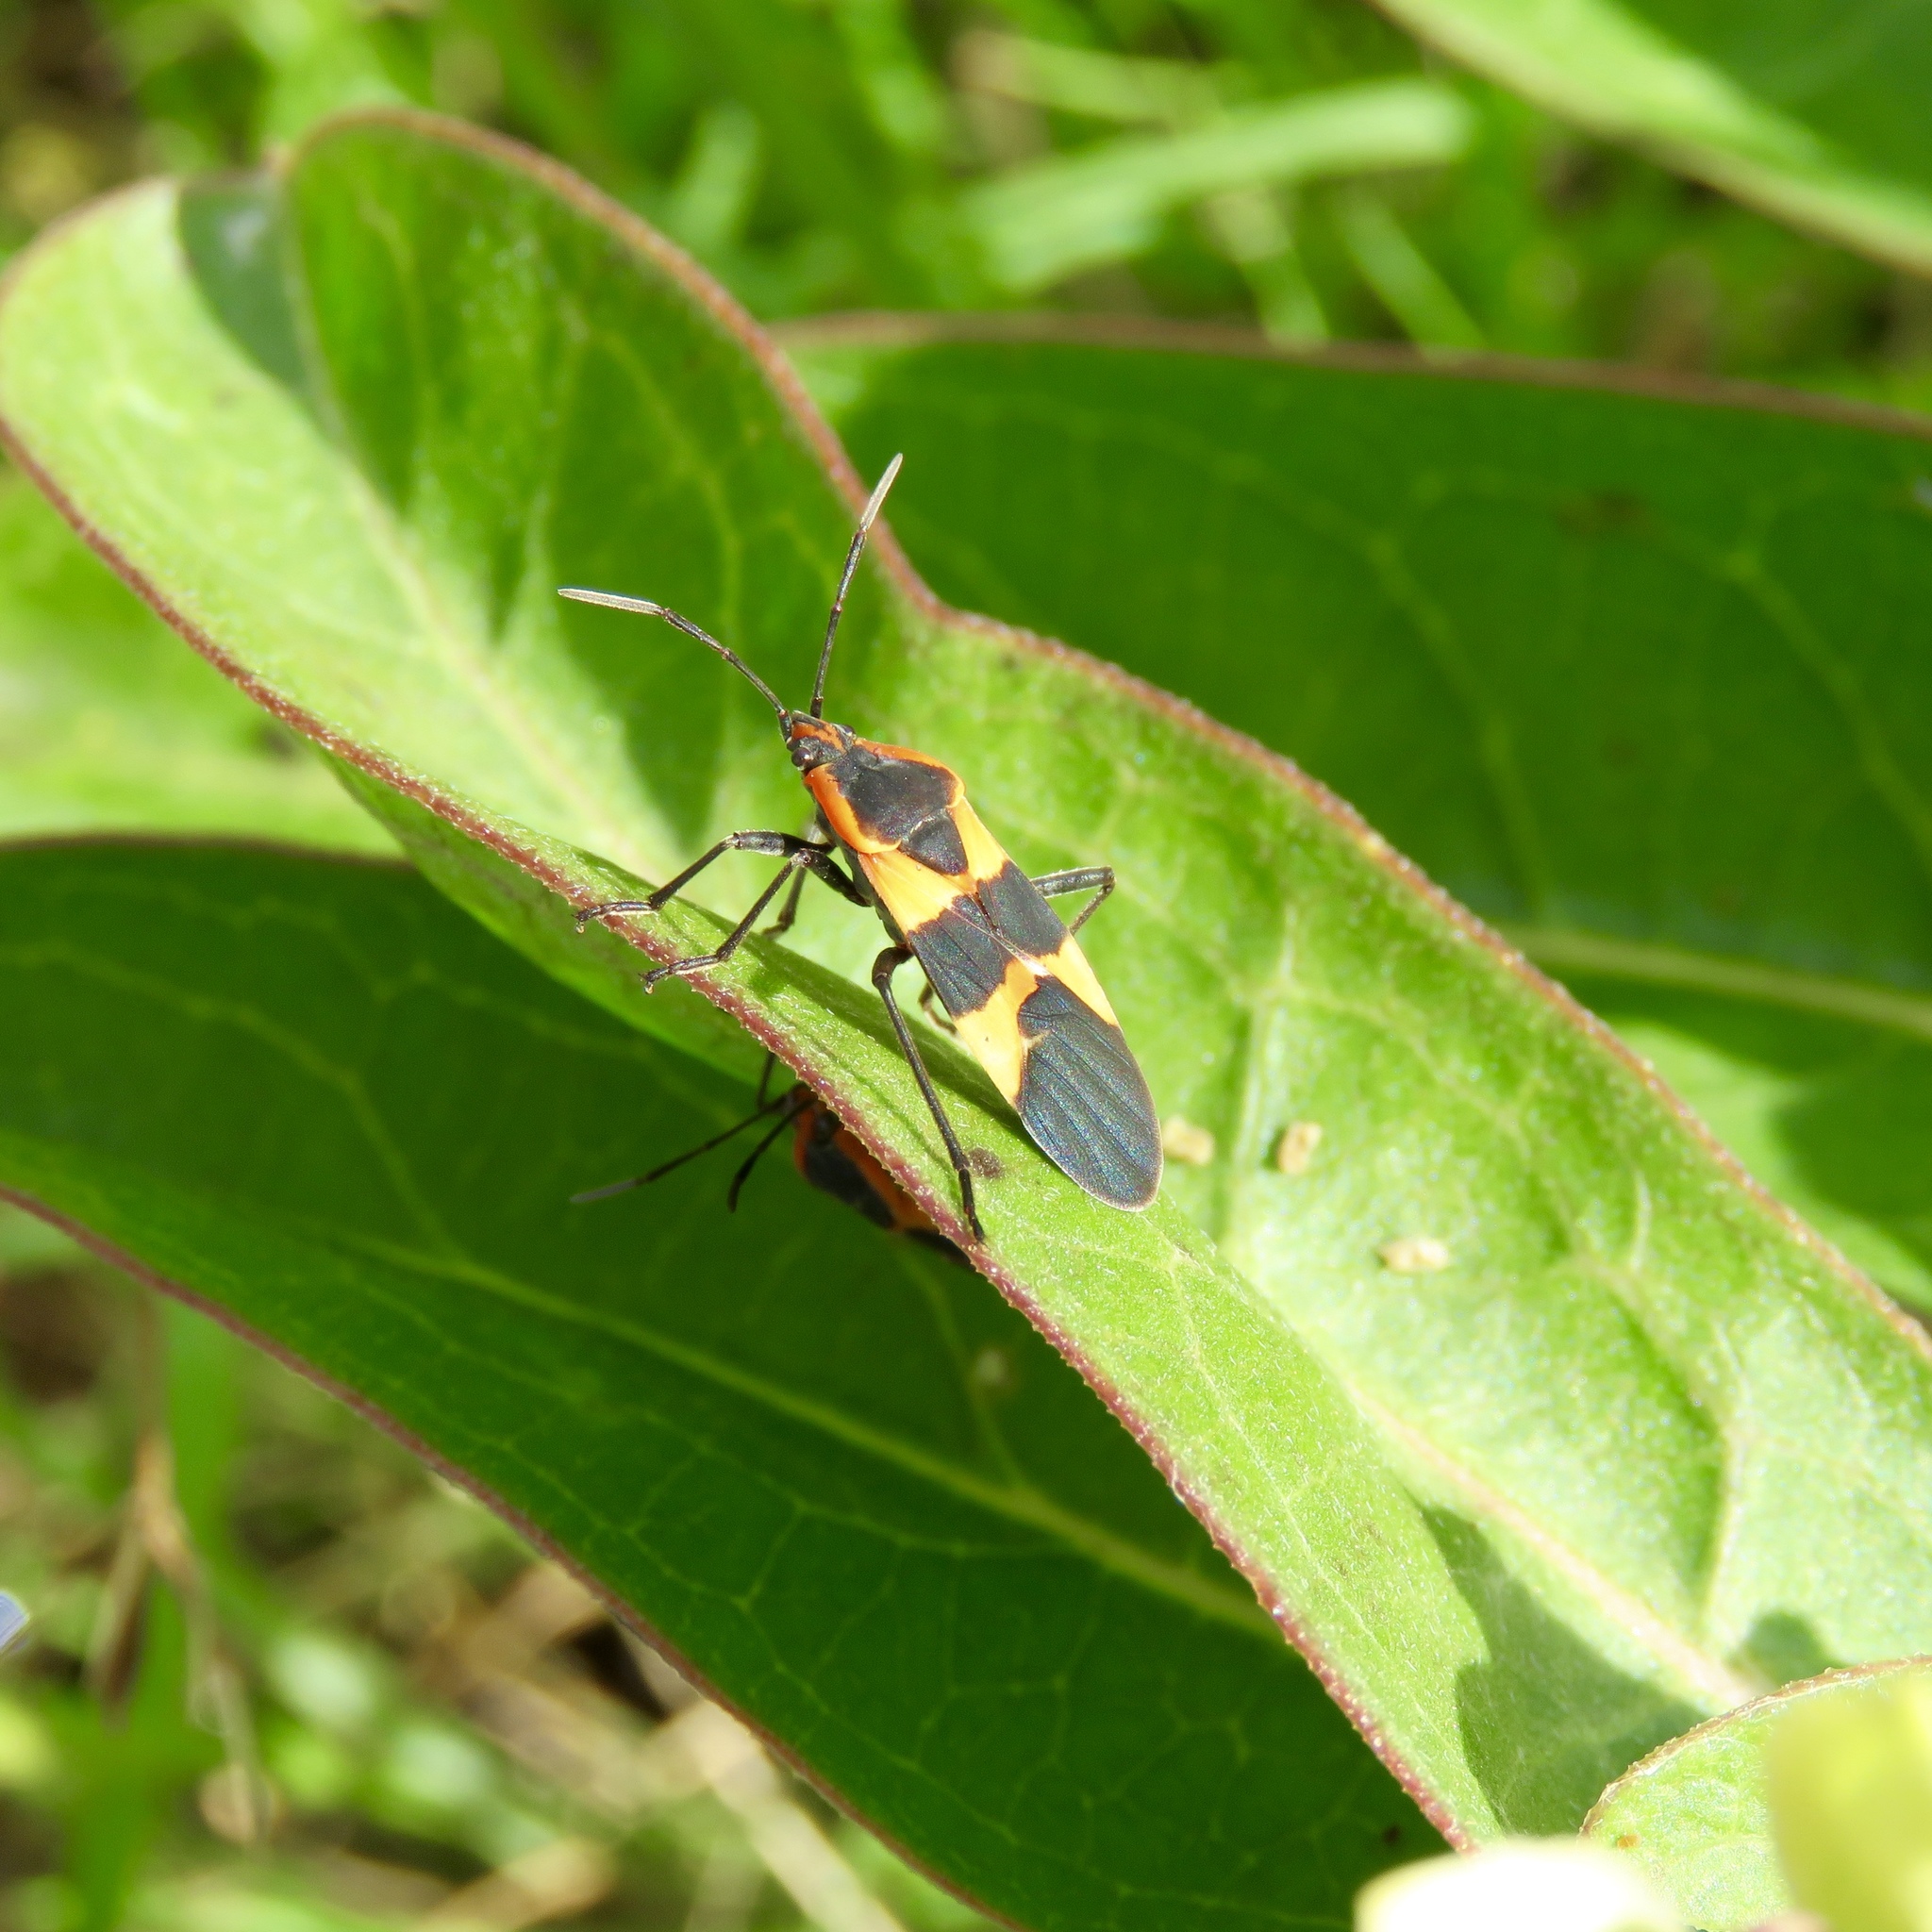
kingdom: Animalia
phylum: Arthropoda
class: Insecta
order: Hemiptera
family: Lygaeidae
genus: Oncopeltus
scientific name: Oncopeltus fasciatus
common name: Large milkweed bug
